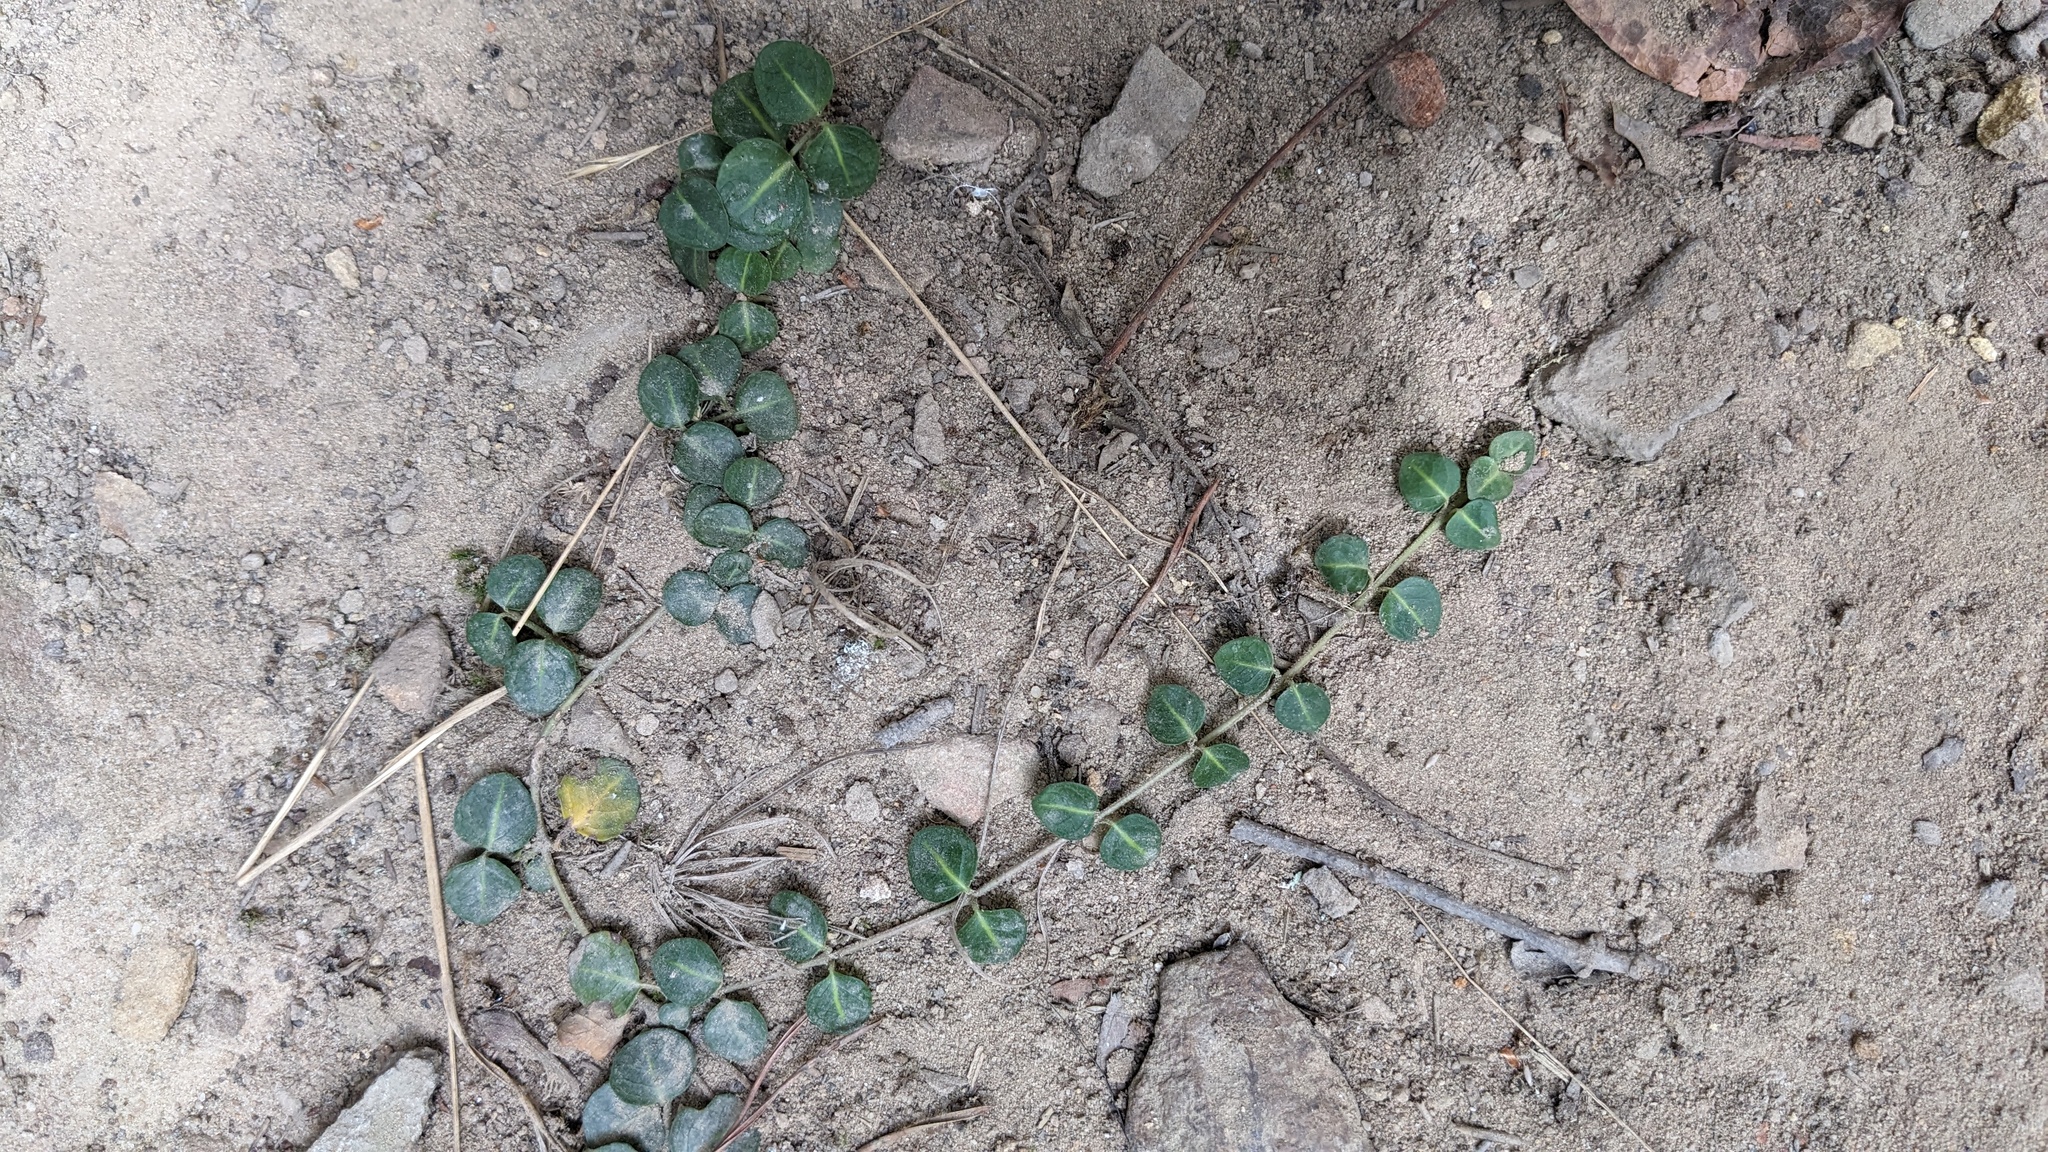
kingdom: Plantae
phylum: Tracheophyta
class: Magnoliopsida
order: Gentianales
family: Rubiaceae
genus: Mitchella
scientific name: Mitchella repens
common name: Partridge-berry
